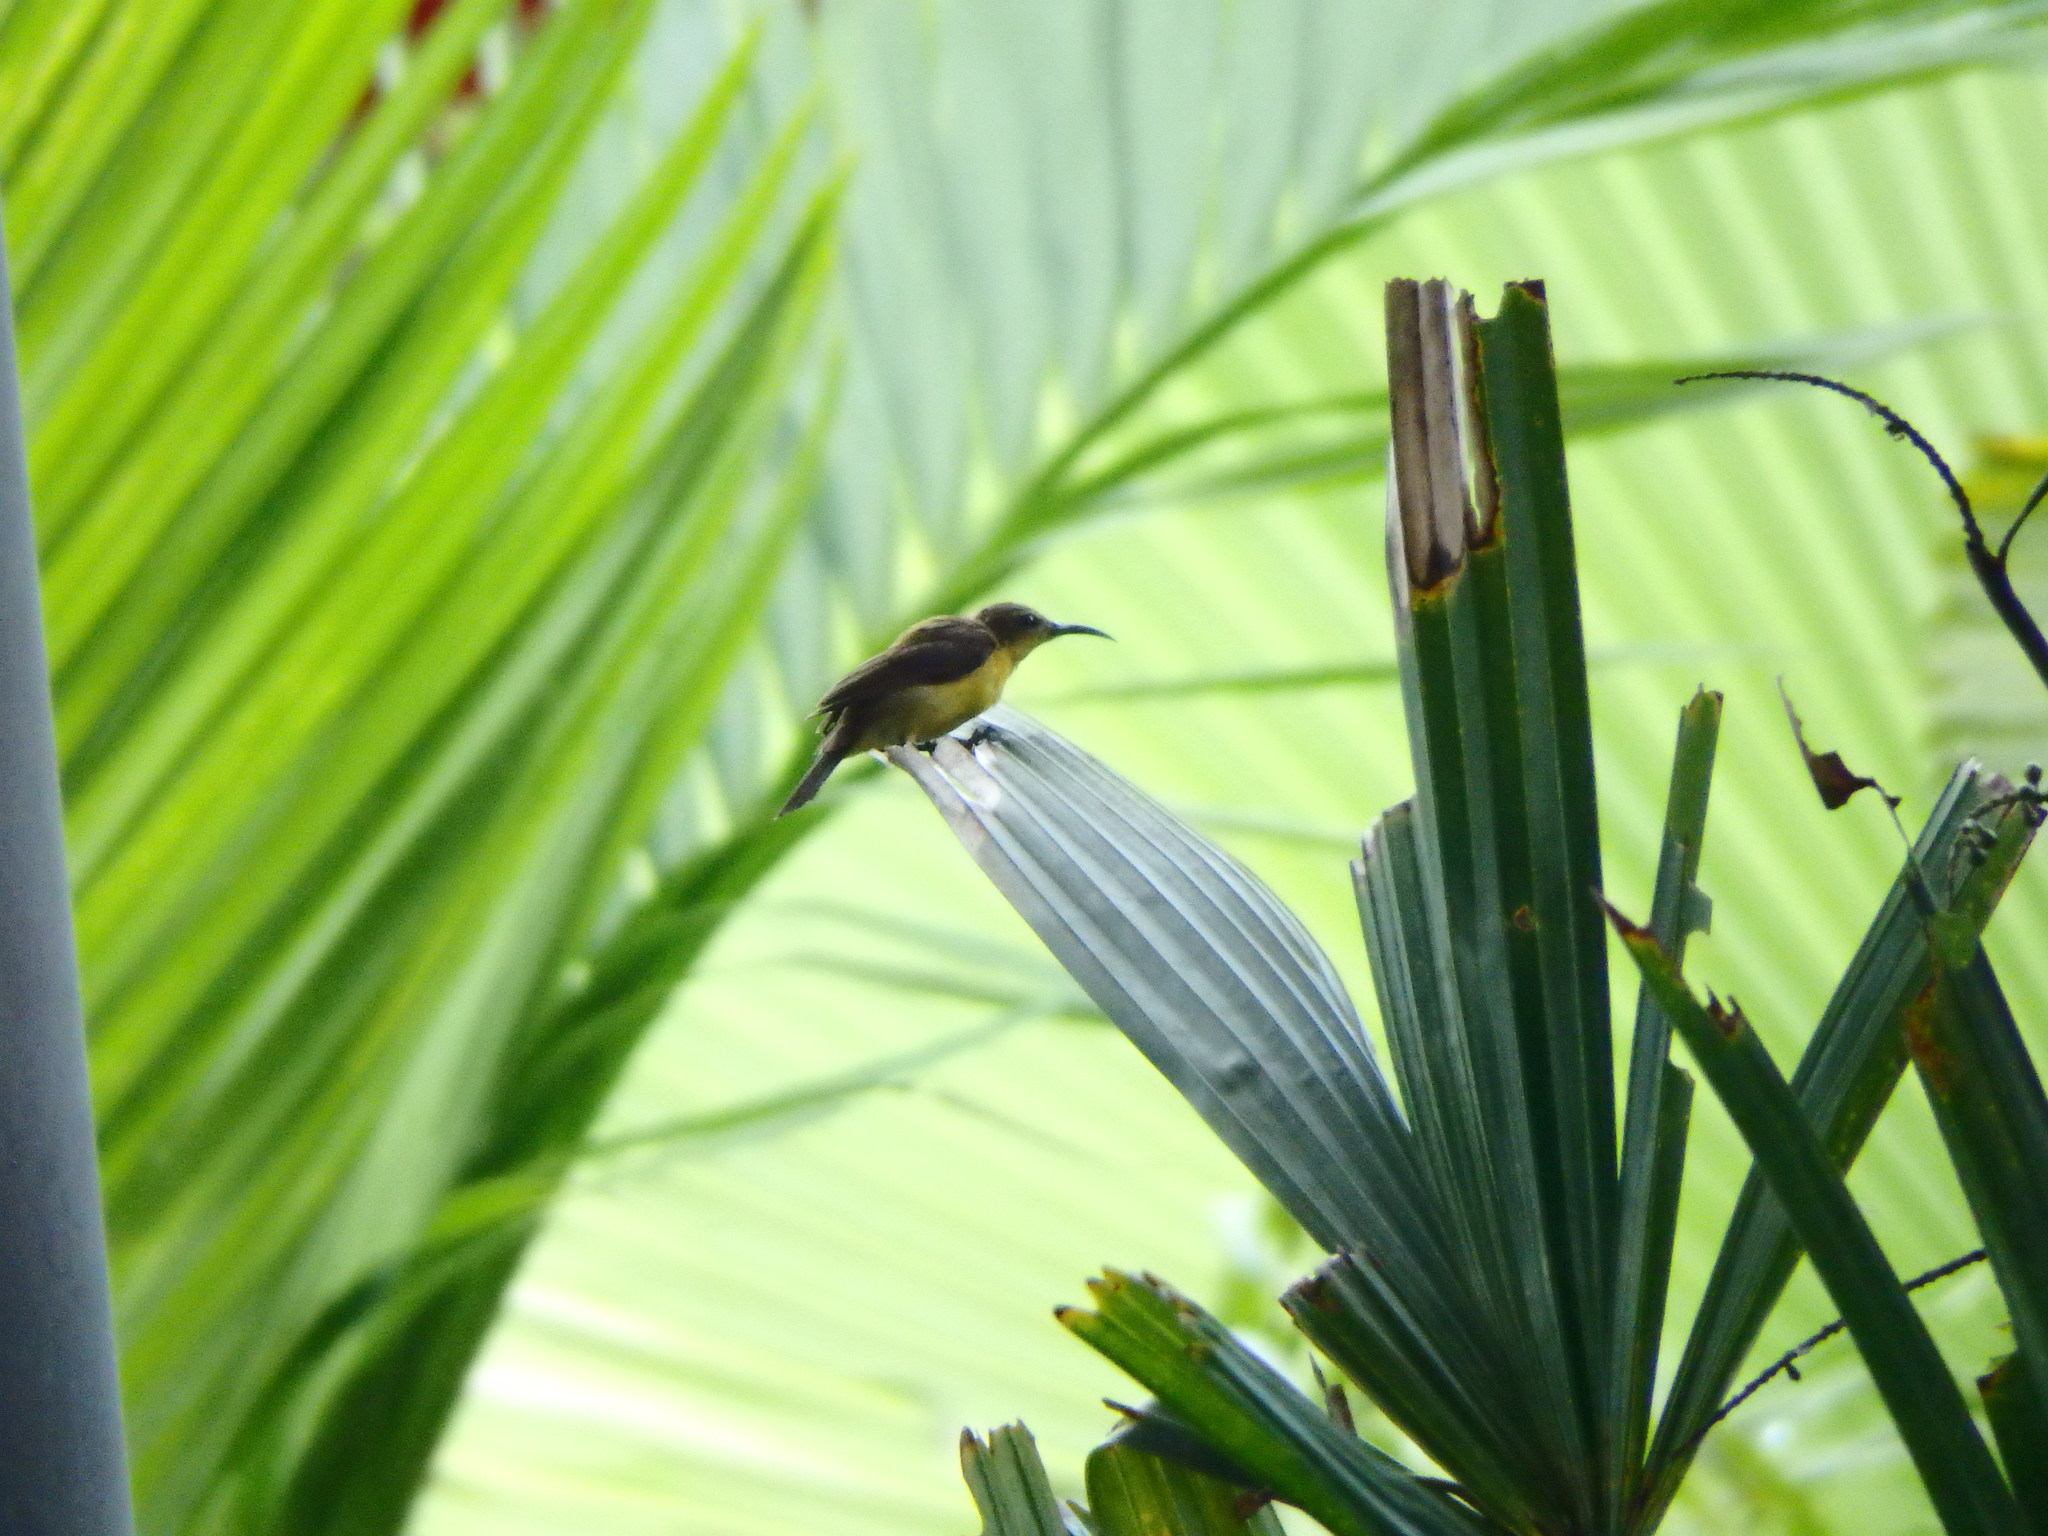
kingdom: Animalia
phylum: Chordata
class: Aves
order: Passeriformes
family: Nectariniidae
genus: Cinnyris
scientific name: Cinnyris
